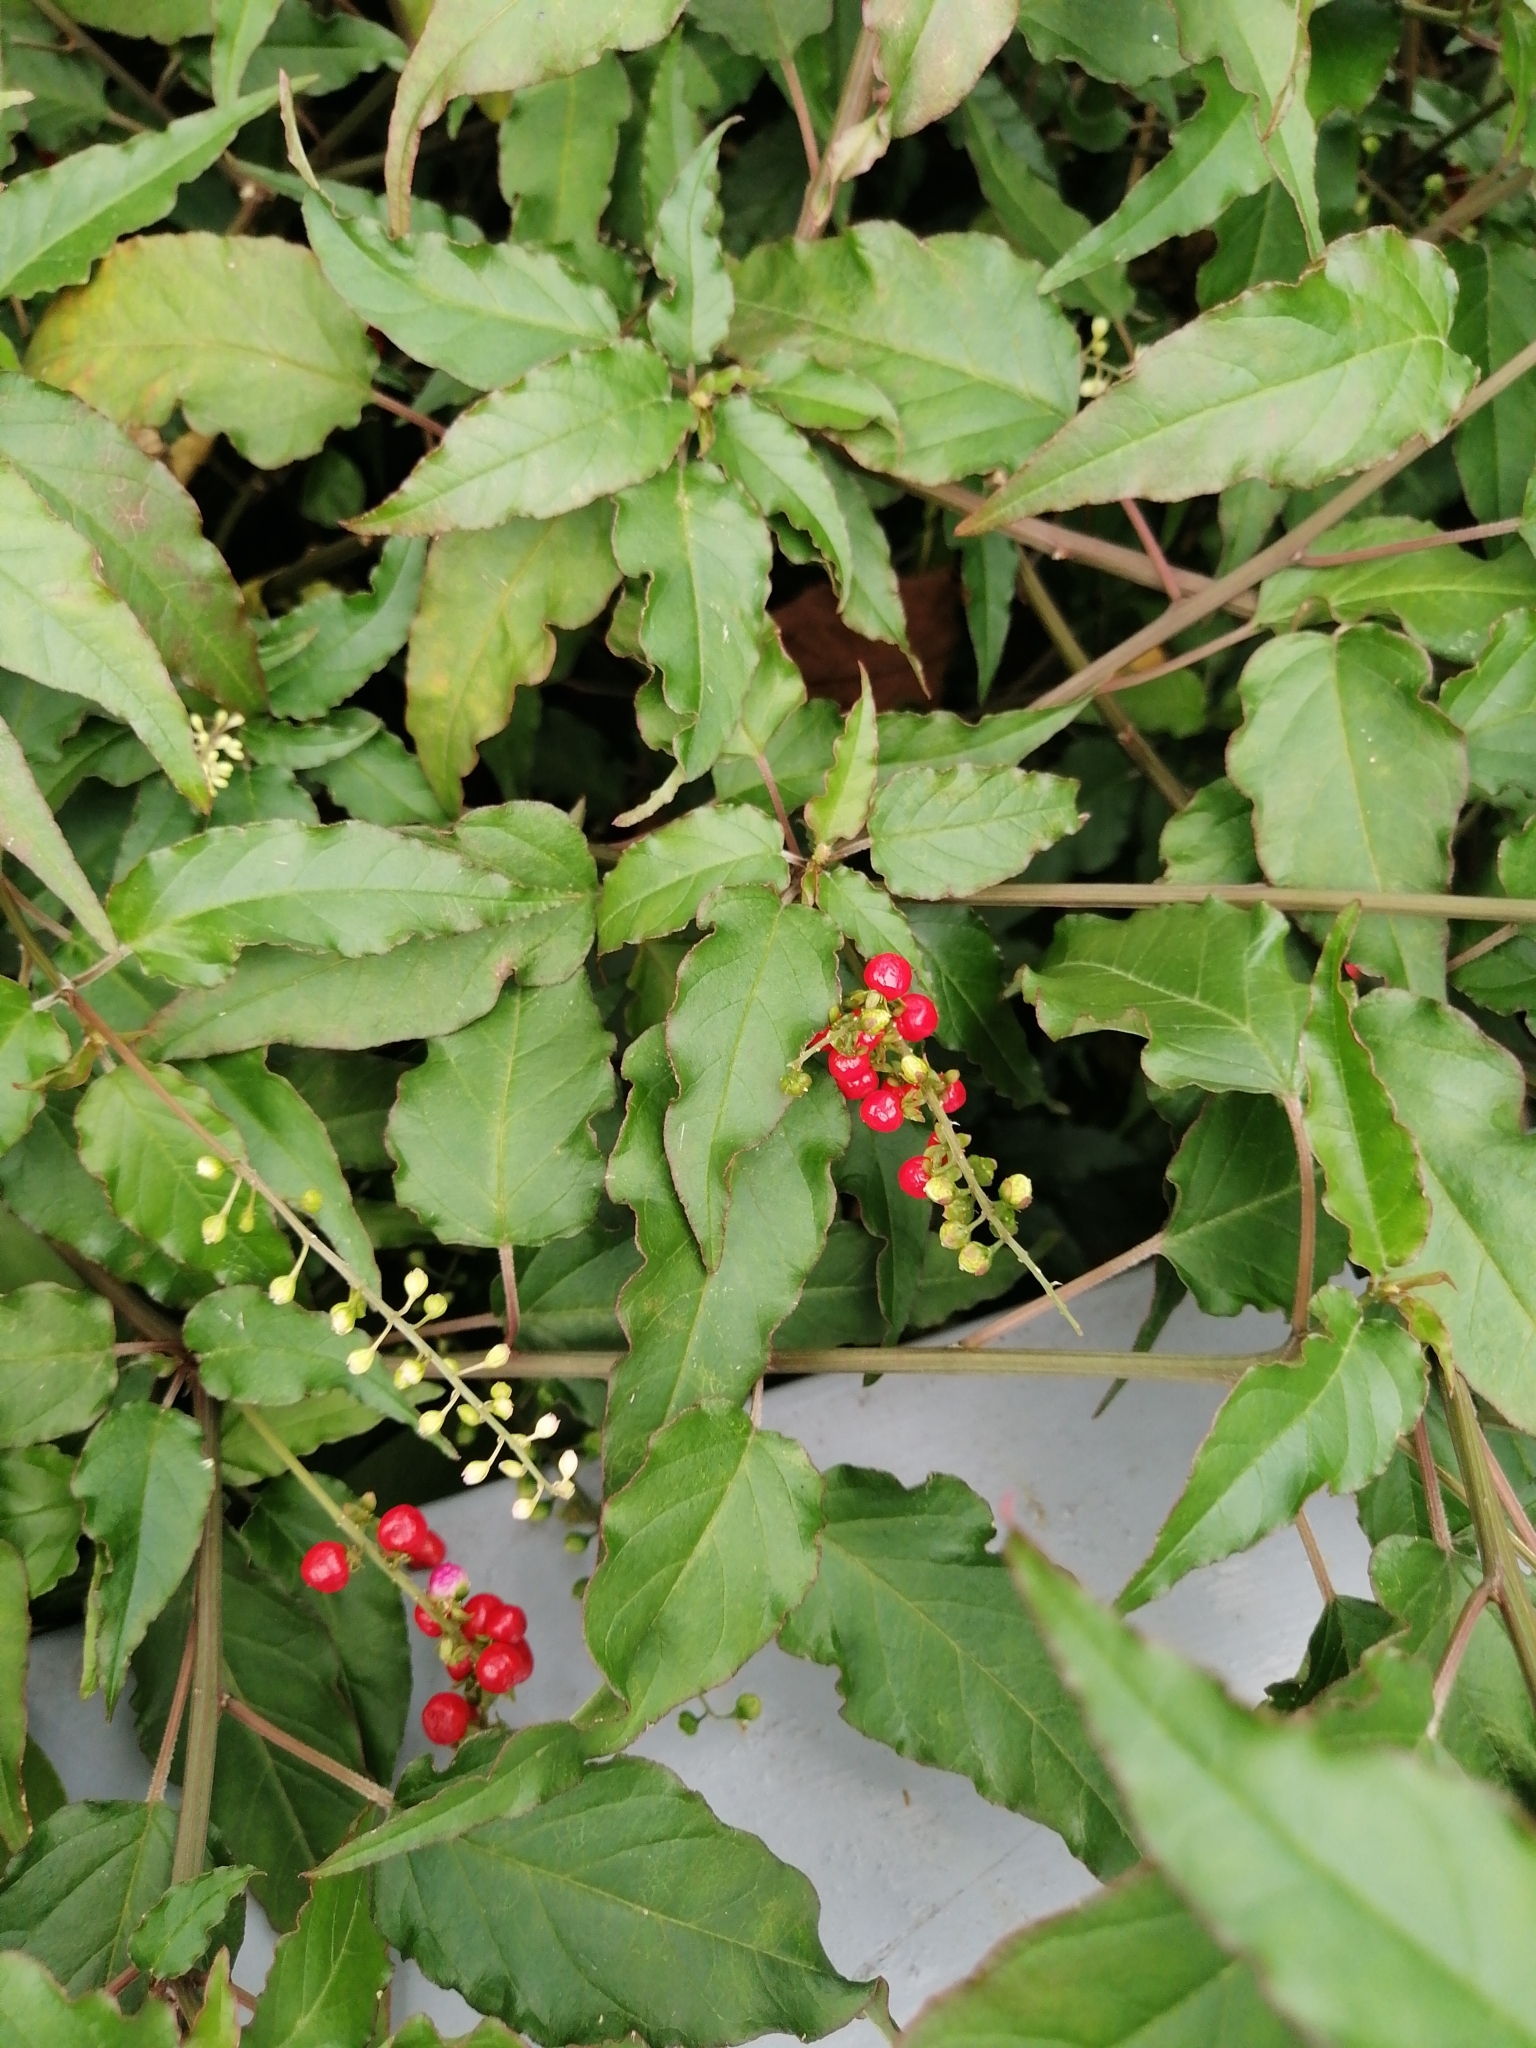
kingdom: Plantae
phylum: Tracheophyta
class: Magnoliopsida
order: Caryophyllales
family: Phytolaccaceae
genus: Rivina
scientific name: Rivina humilis
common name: Rougeplant
